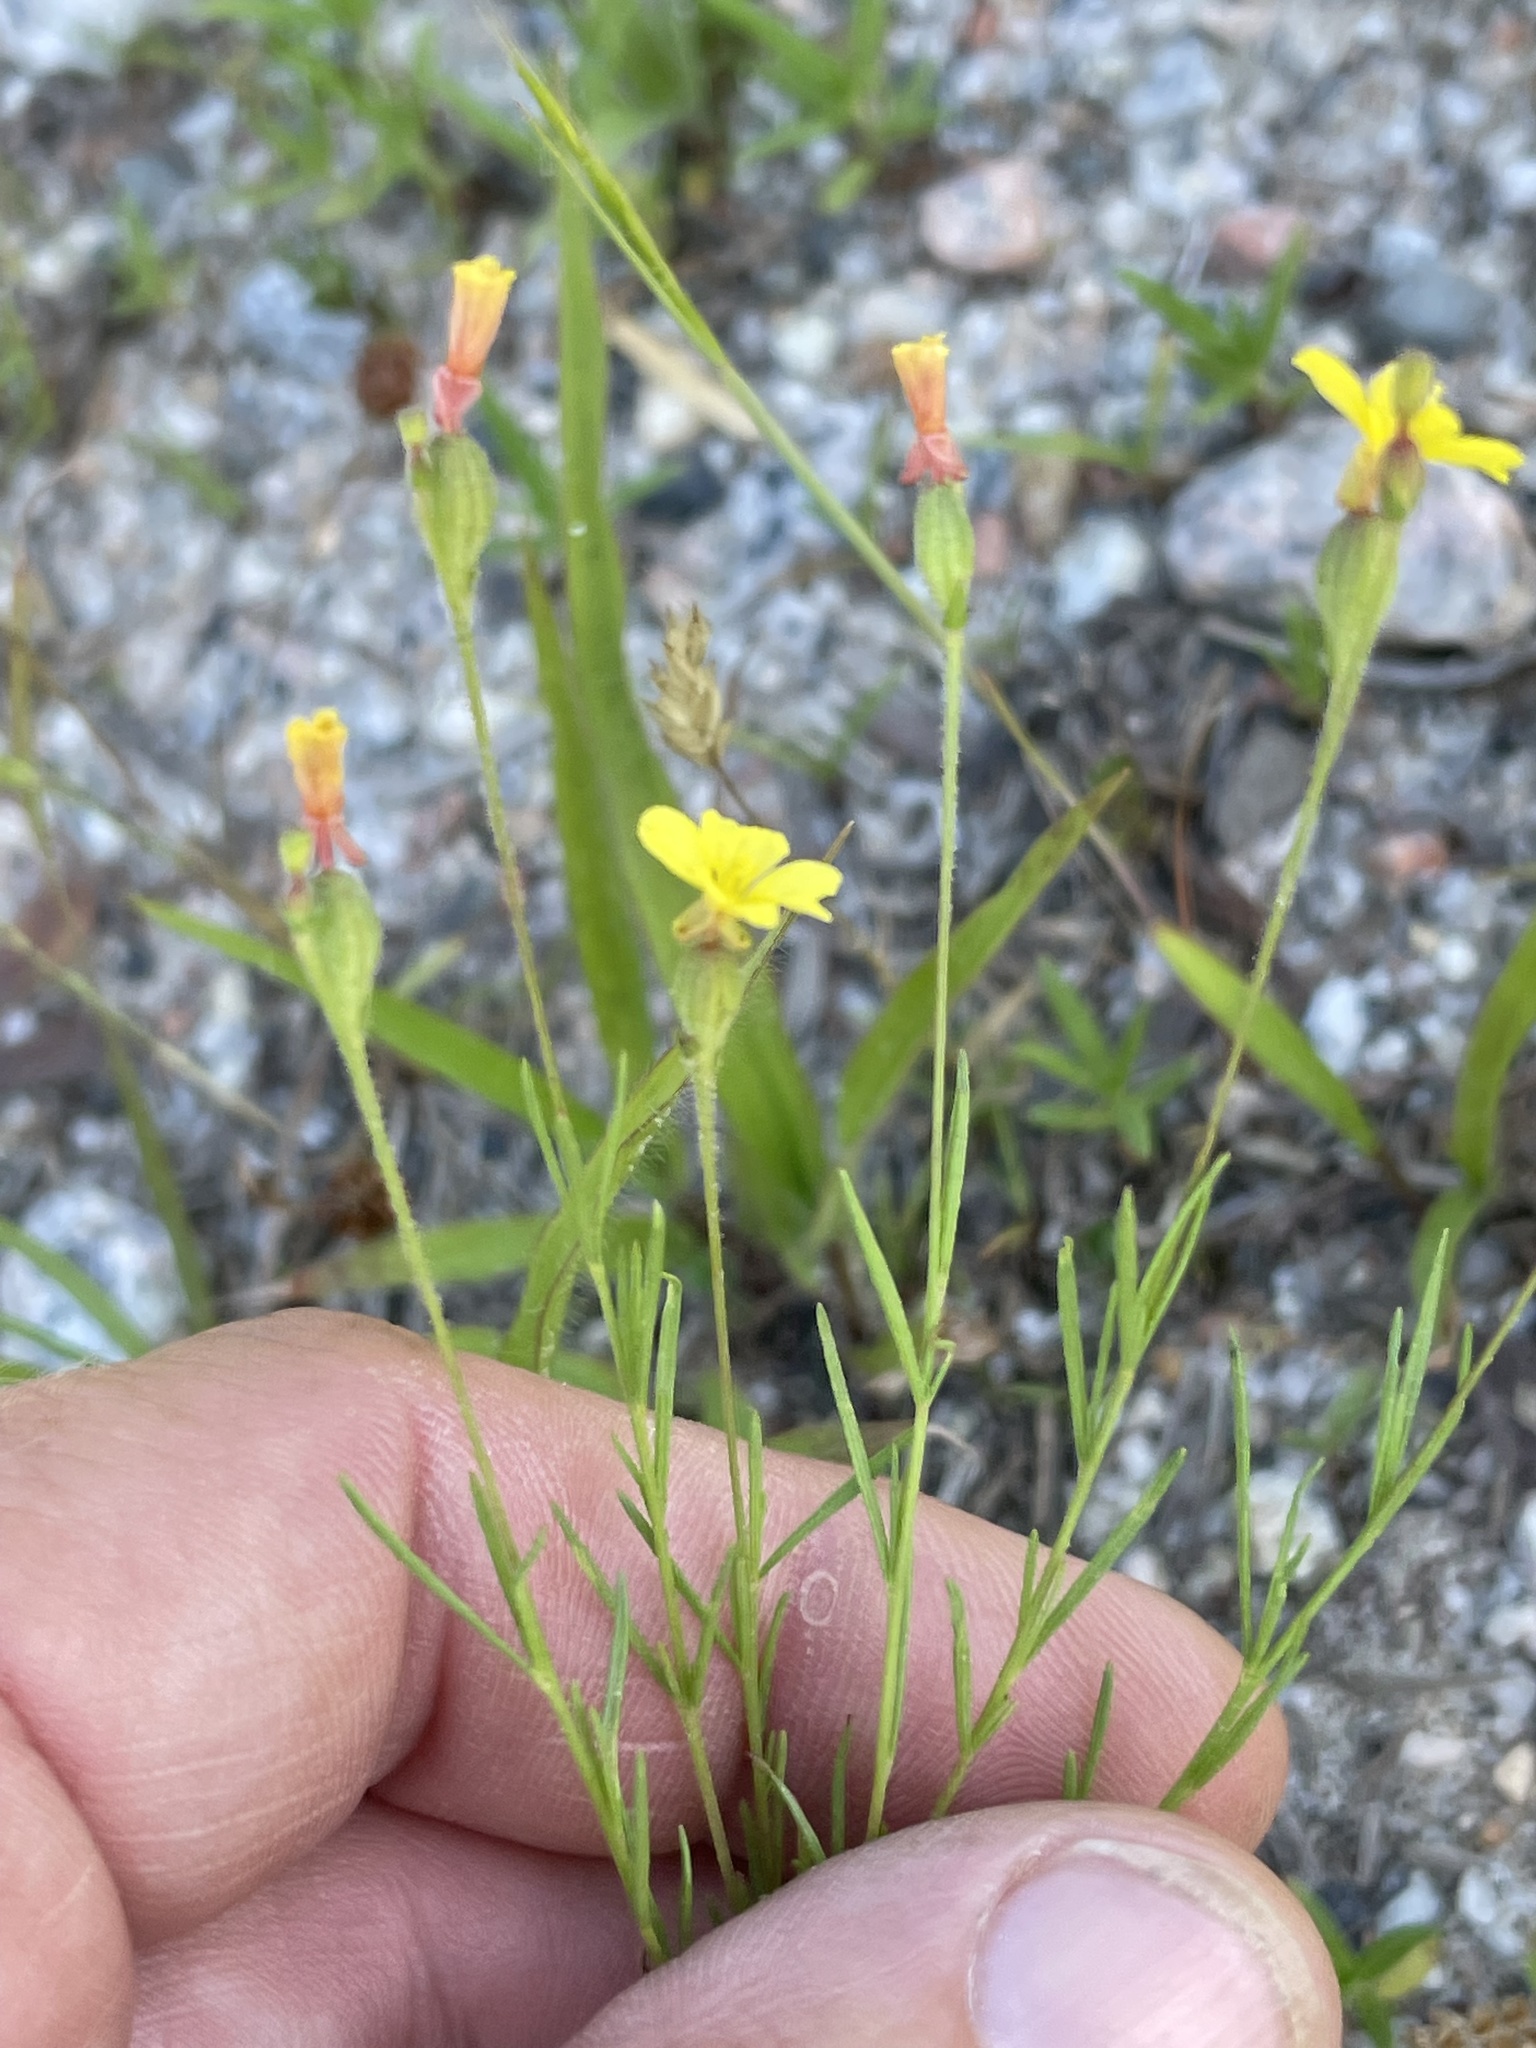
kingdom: Plantae
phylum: Tracheophyta
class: Magnoliopsida
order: Myrtales
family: Onagraceae
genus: Oenothera
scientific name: Oenothera linifolia
